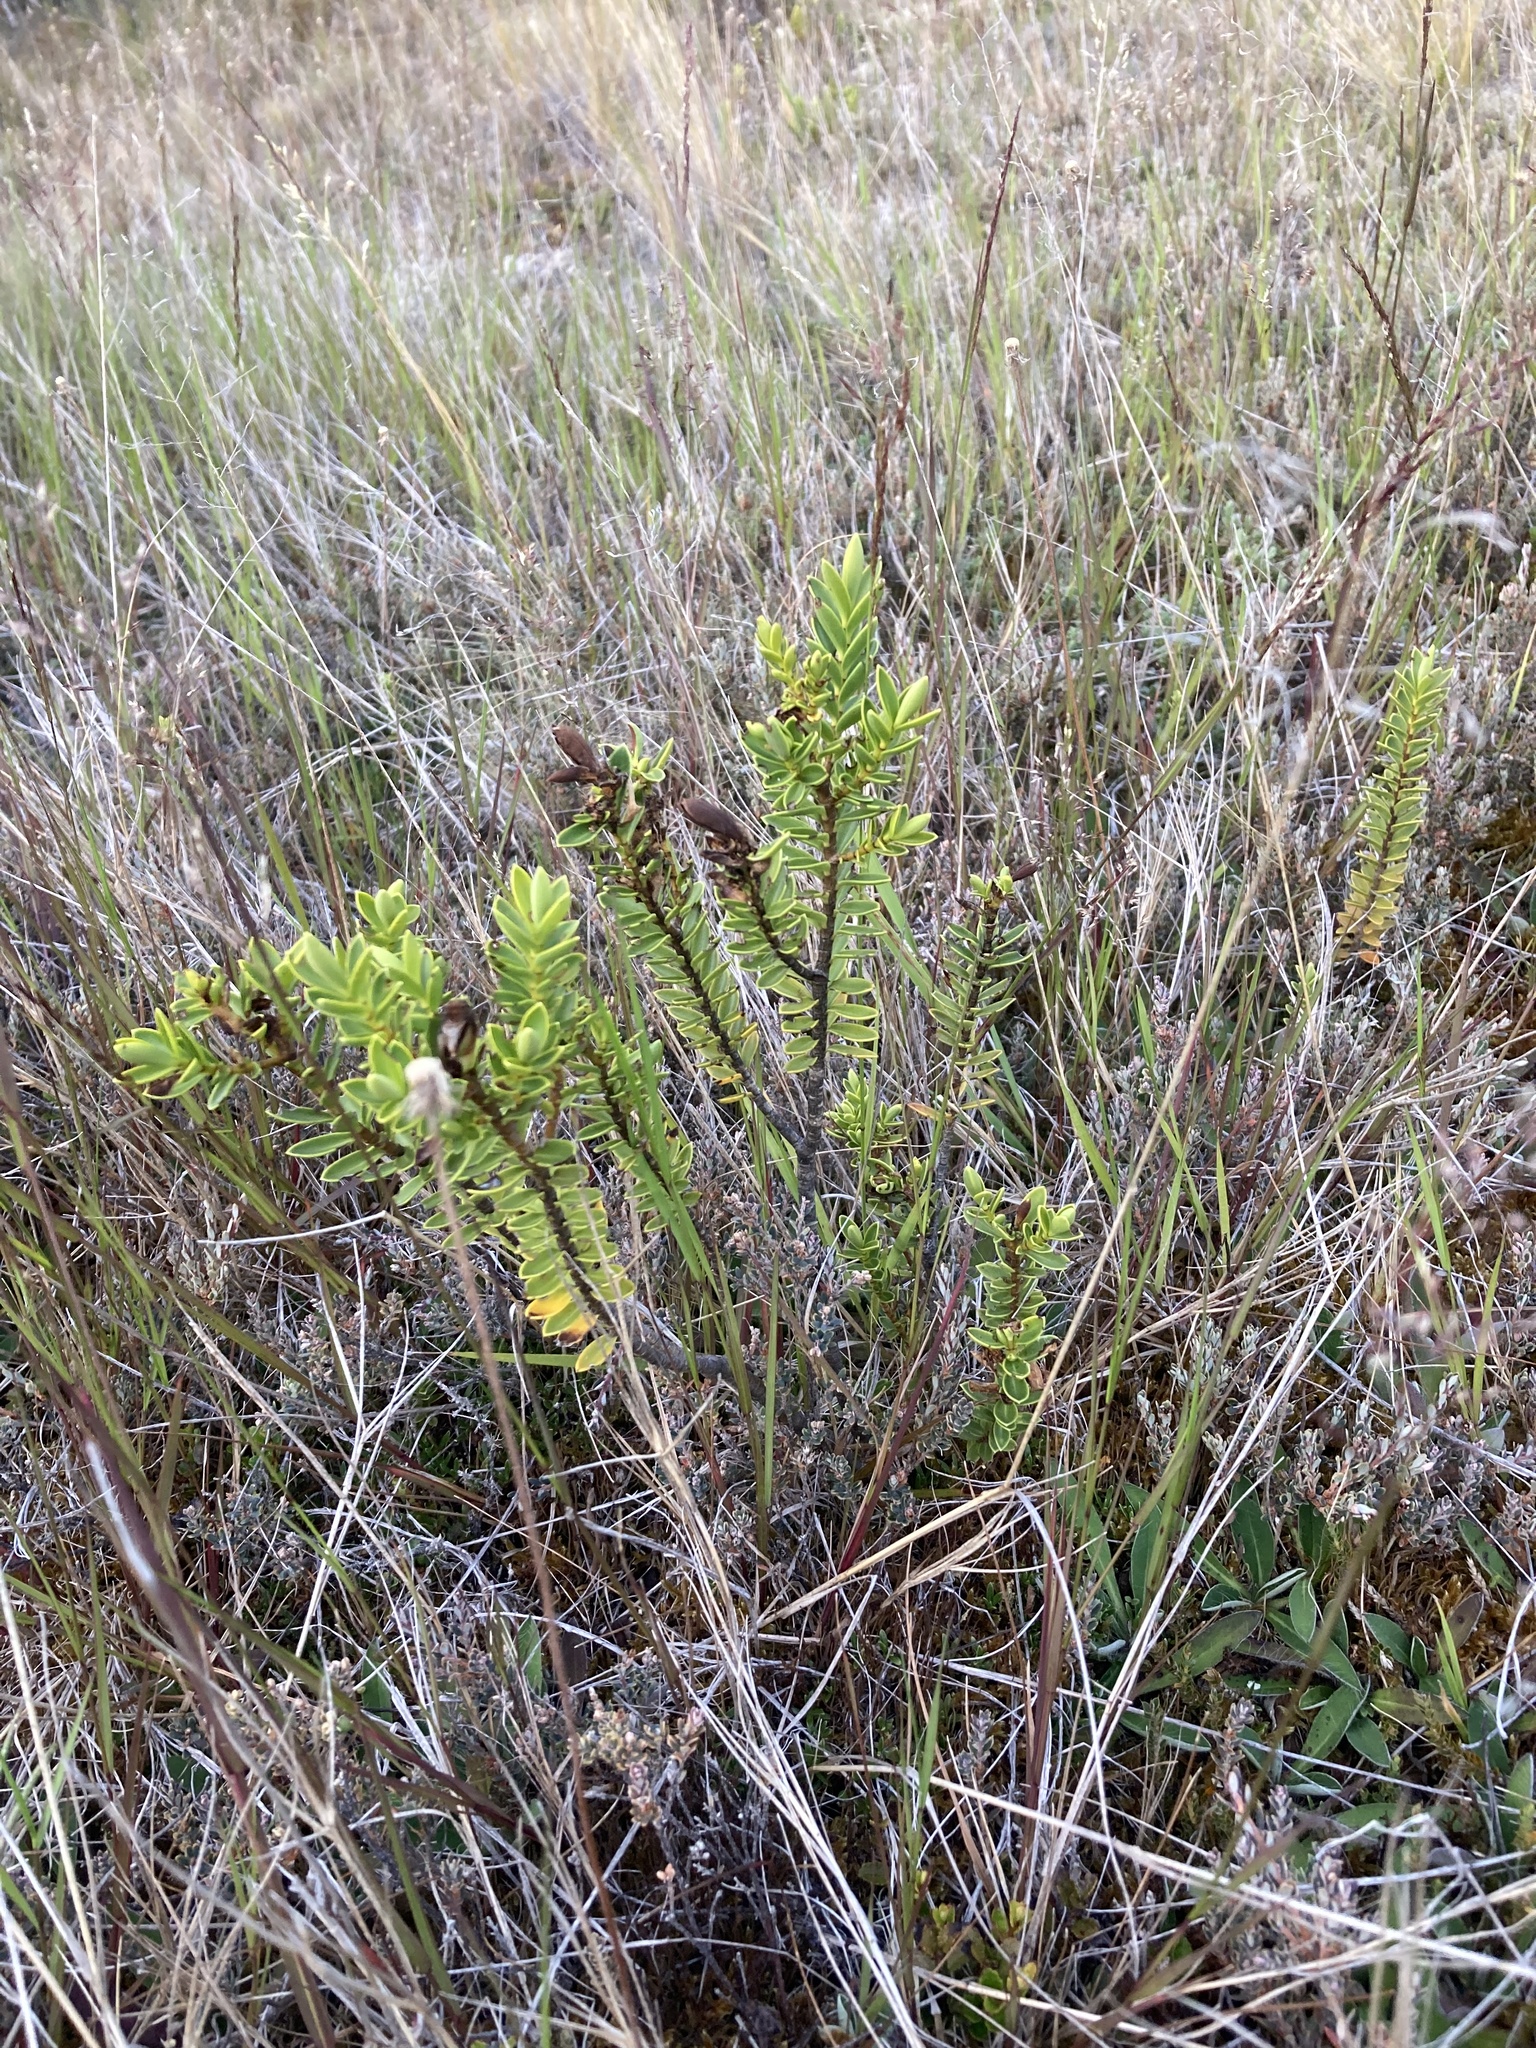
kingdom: Plantae
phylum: Tracheophyta
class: Magnoliopsida
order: Lamiales
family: Plantaginaceae
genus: Veronica
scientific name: Veronica odora
